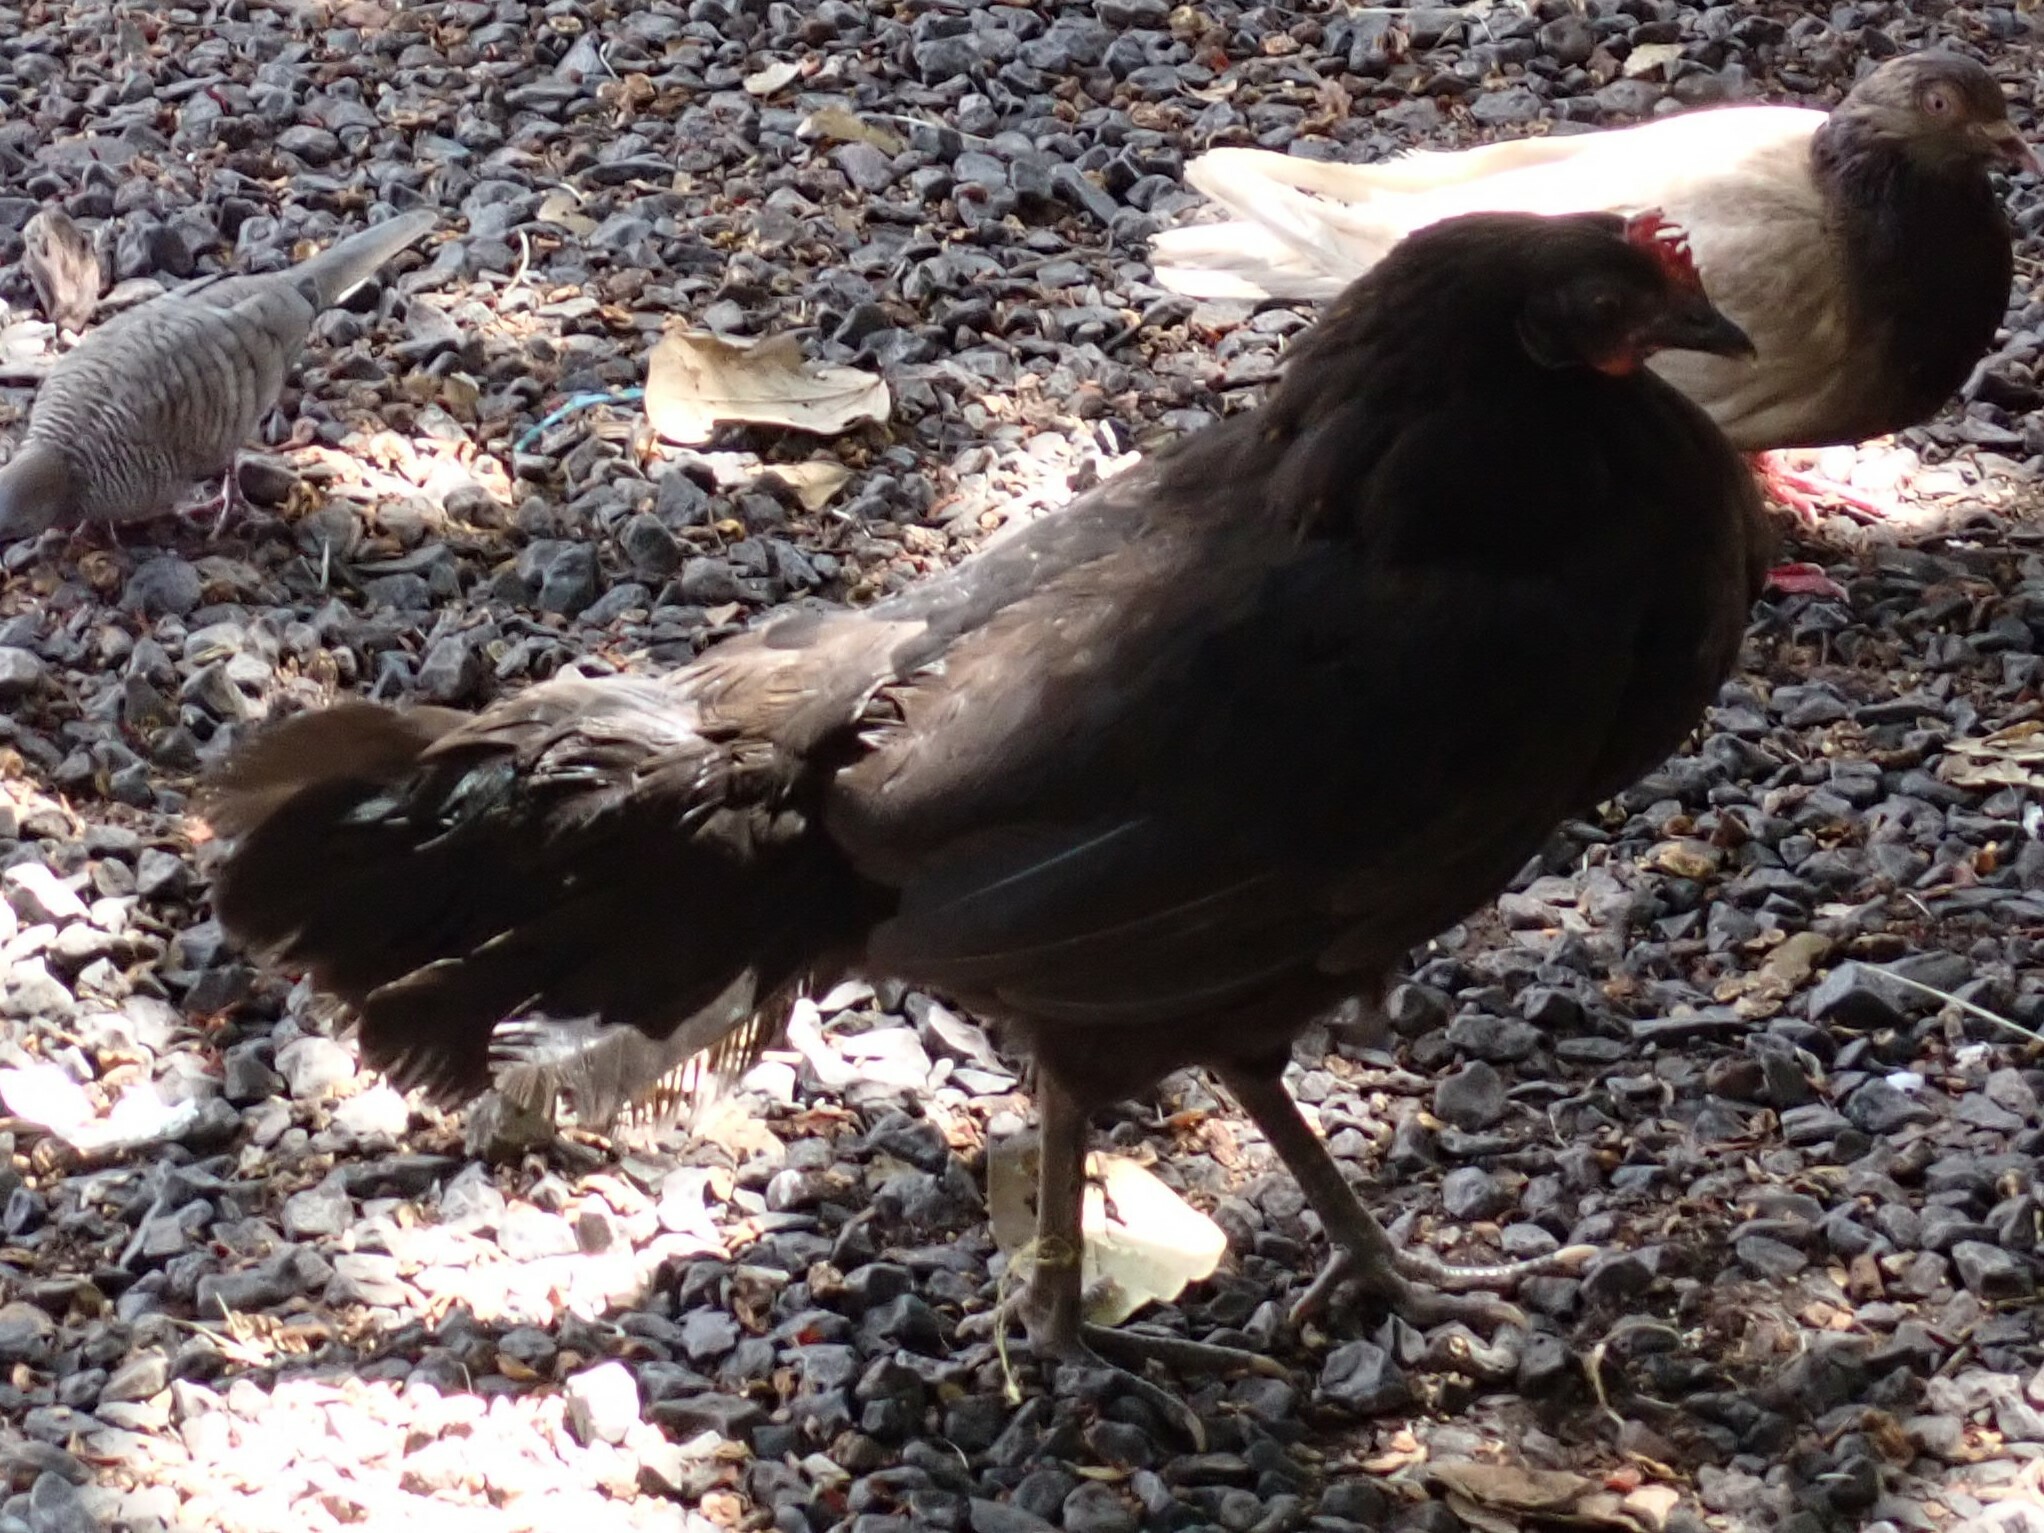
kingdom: Animalia
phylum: Chordata
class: Aves
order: Galliformes
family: Phasianidae
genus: Gallus
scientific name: Gallus gallus
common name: Red junglefowl
